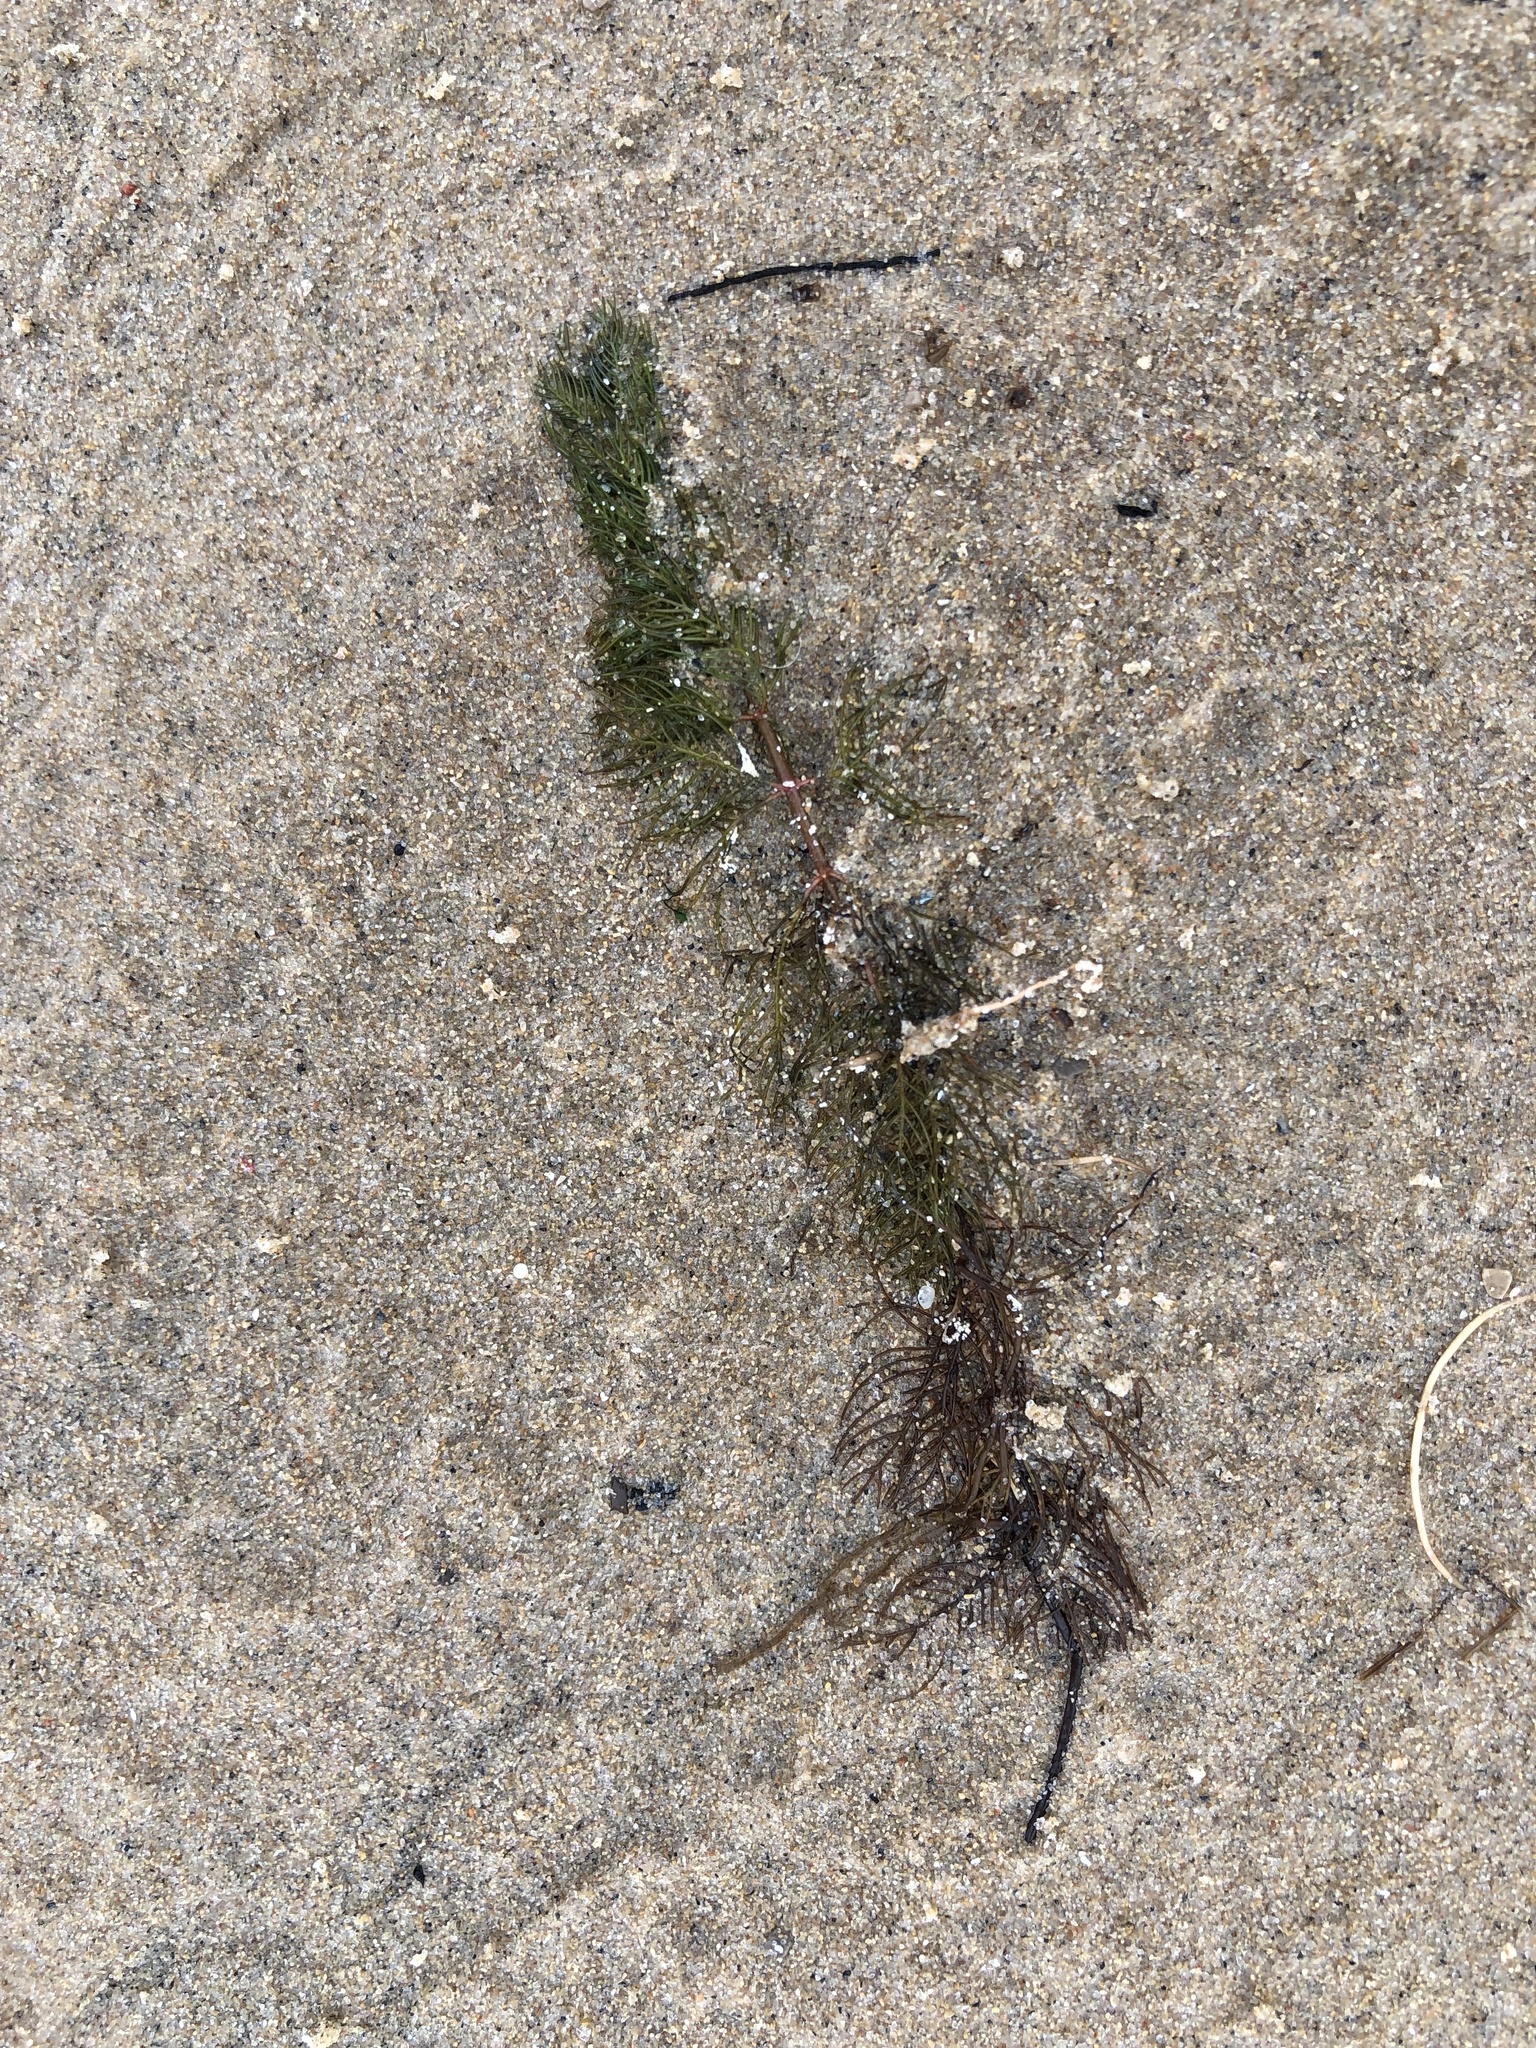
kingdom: Plantae
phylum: Tracheophyta
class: Magnoliopsida
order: Saxifragales
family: Haloragaceae
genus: Myriophyllum
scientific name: Myriophyllum spicatum
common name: Spiked water-milfoil
